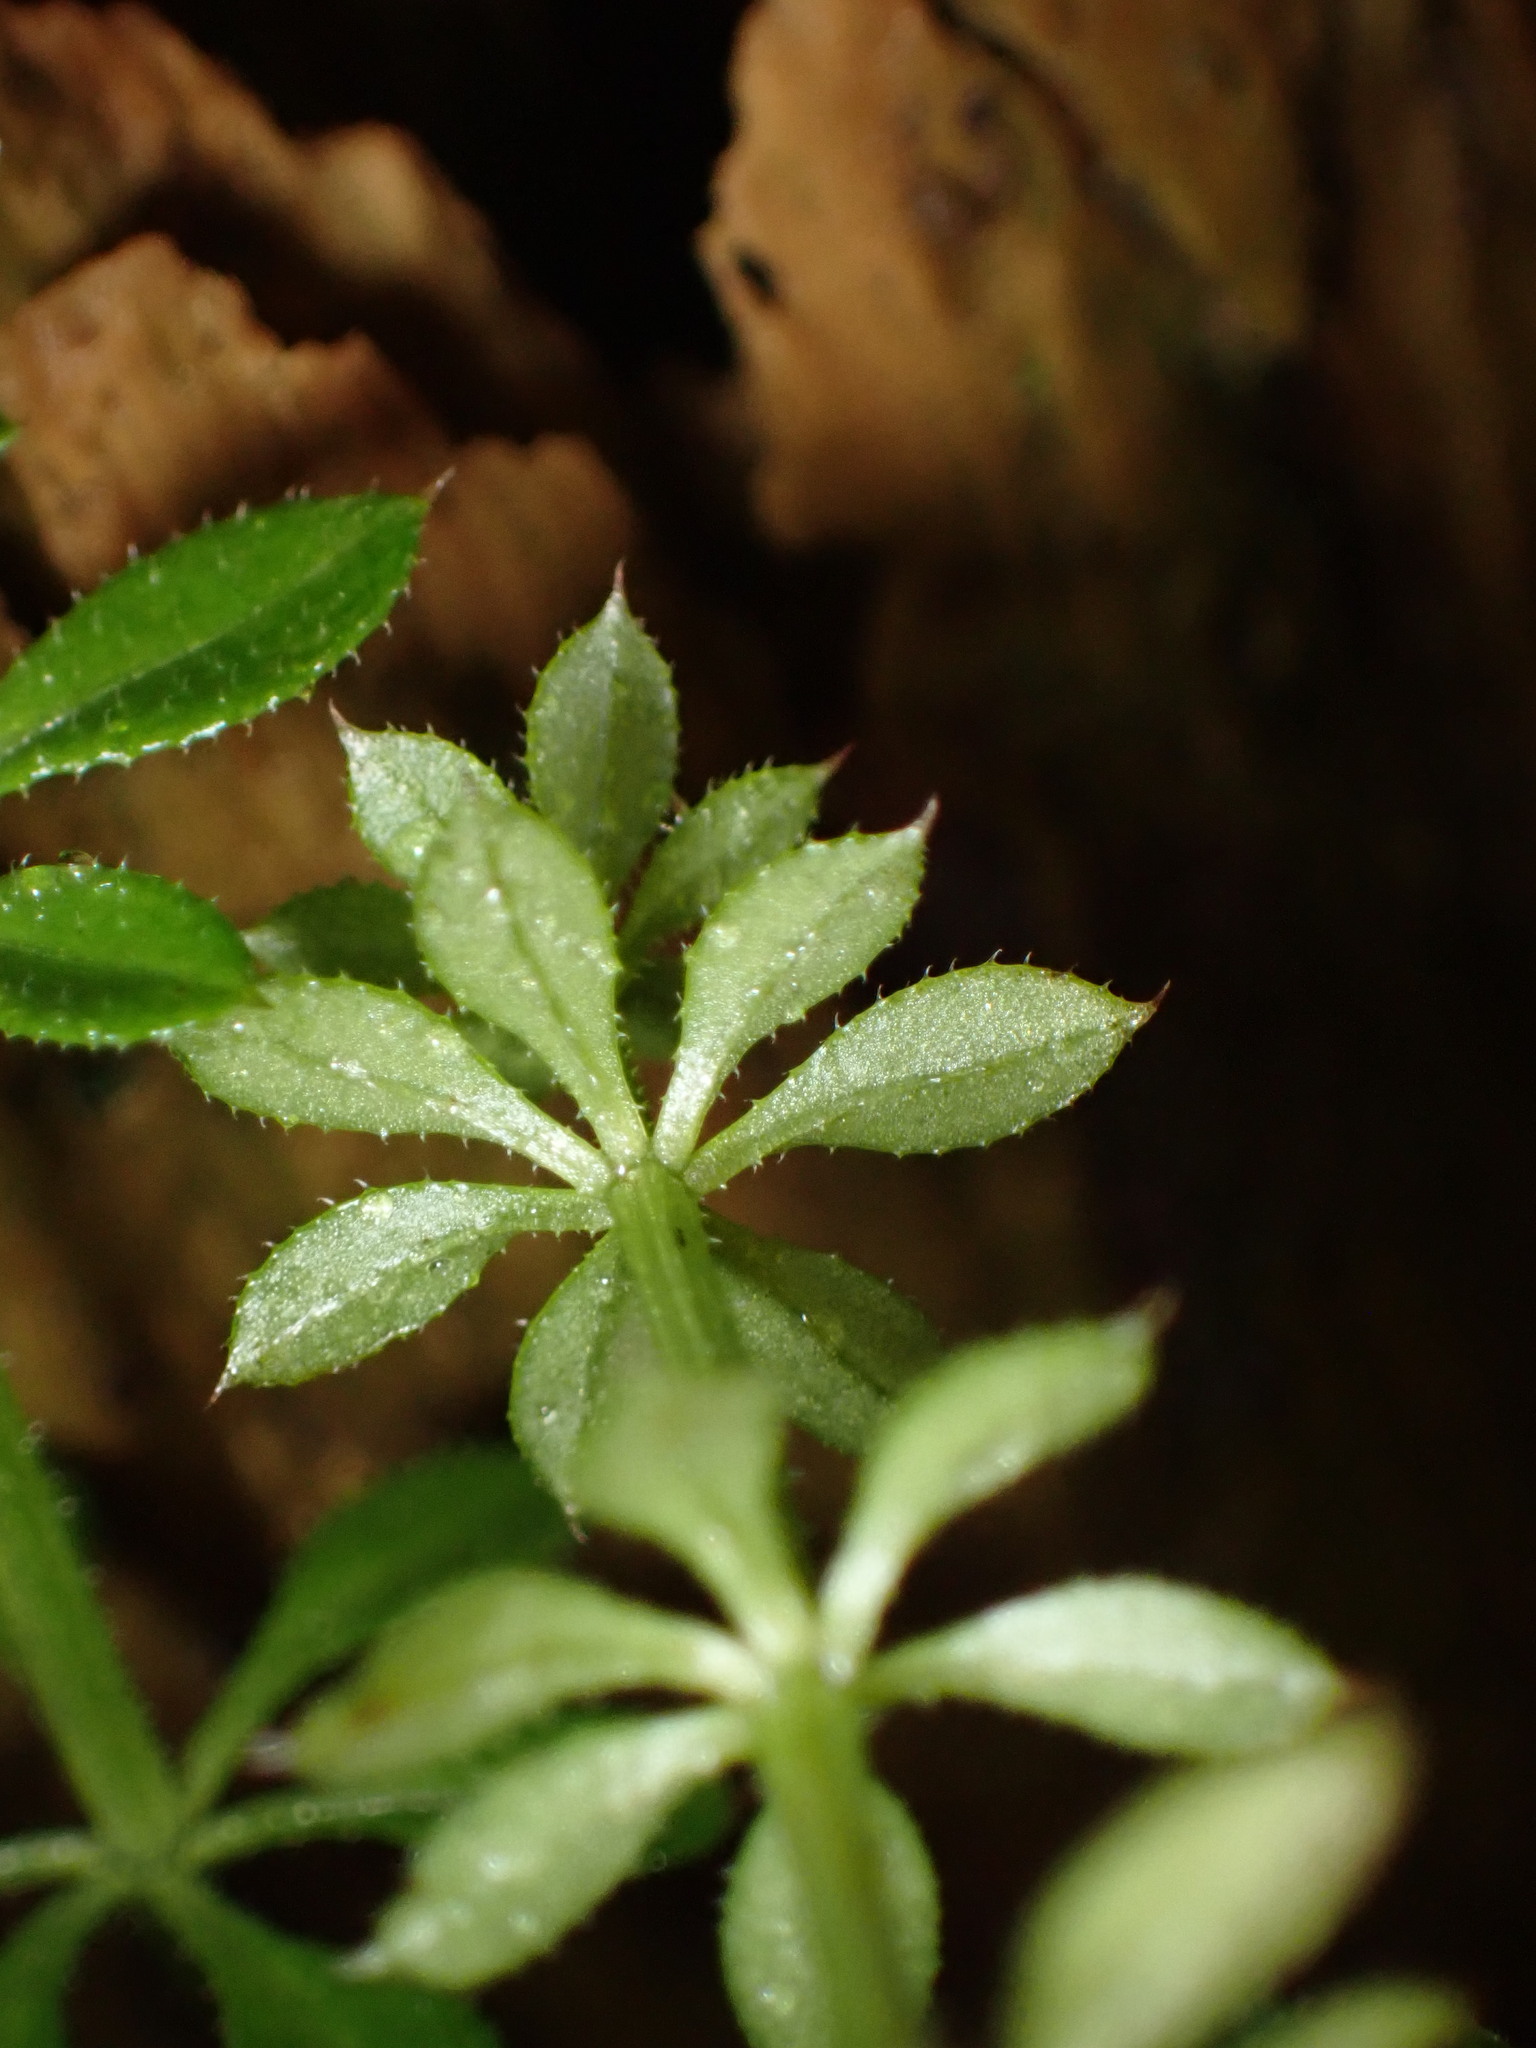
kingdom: Plantae
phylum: Tracheophyta
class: Magnoliopsida
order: Gentianales
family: Rubiaceae
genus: Galium
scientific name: Galium aparine
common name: Cleavers
